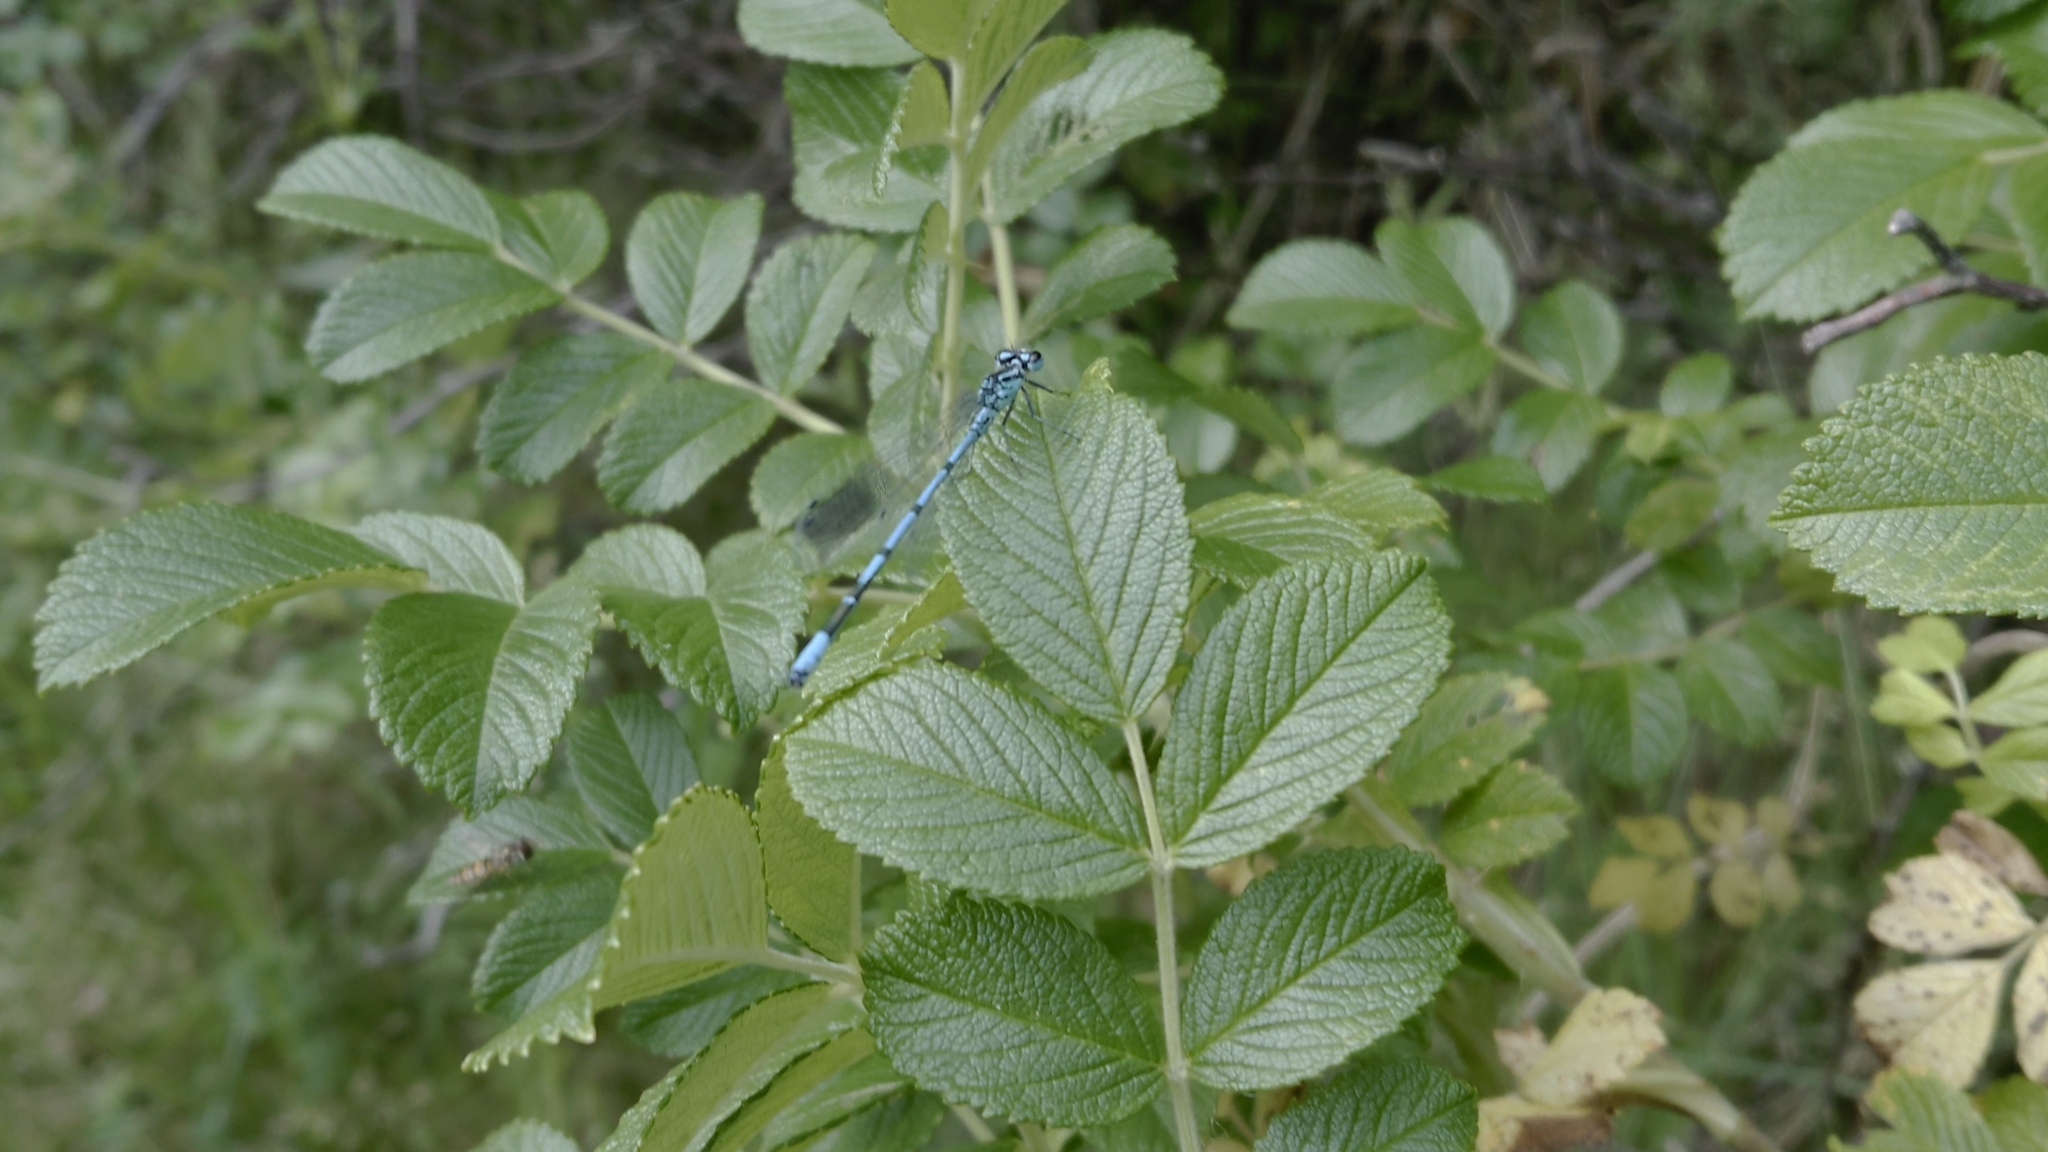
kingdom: Animalia
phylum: Arthropoda
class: Insecta
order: Odonata
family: Coenagrionidae
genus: Coenagrion
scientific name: Coenagrion puella
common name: Azure damselfly
